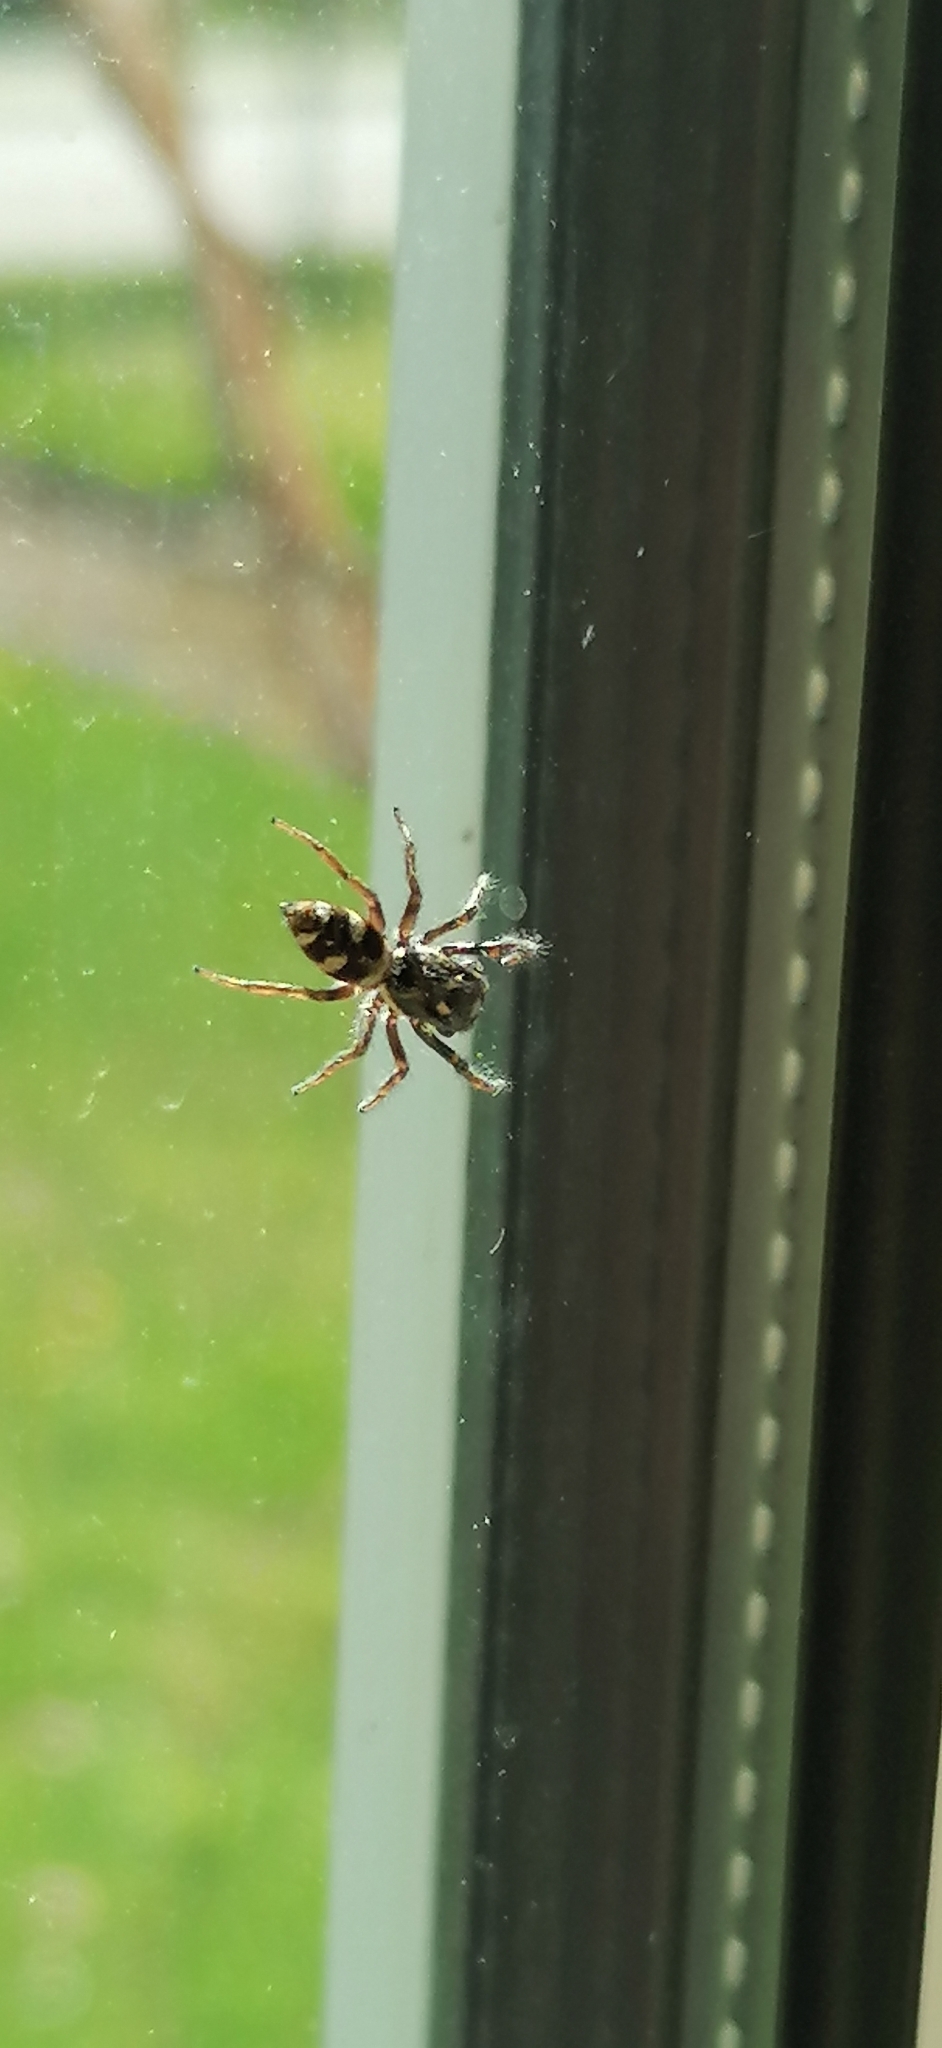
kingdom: Animalia
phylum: Arthropoda
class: Arachnida
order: Araneae
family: Salticidae
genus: Salticus
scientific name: Salticus scenicus
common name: Zebra jumper
